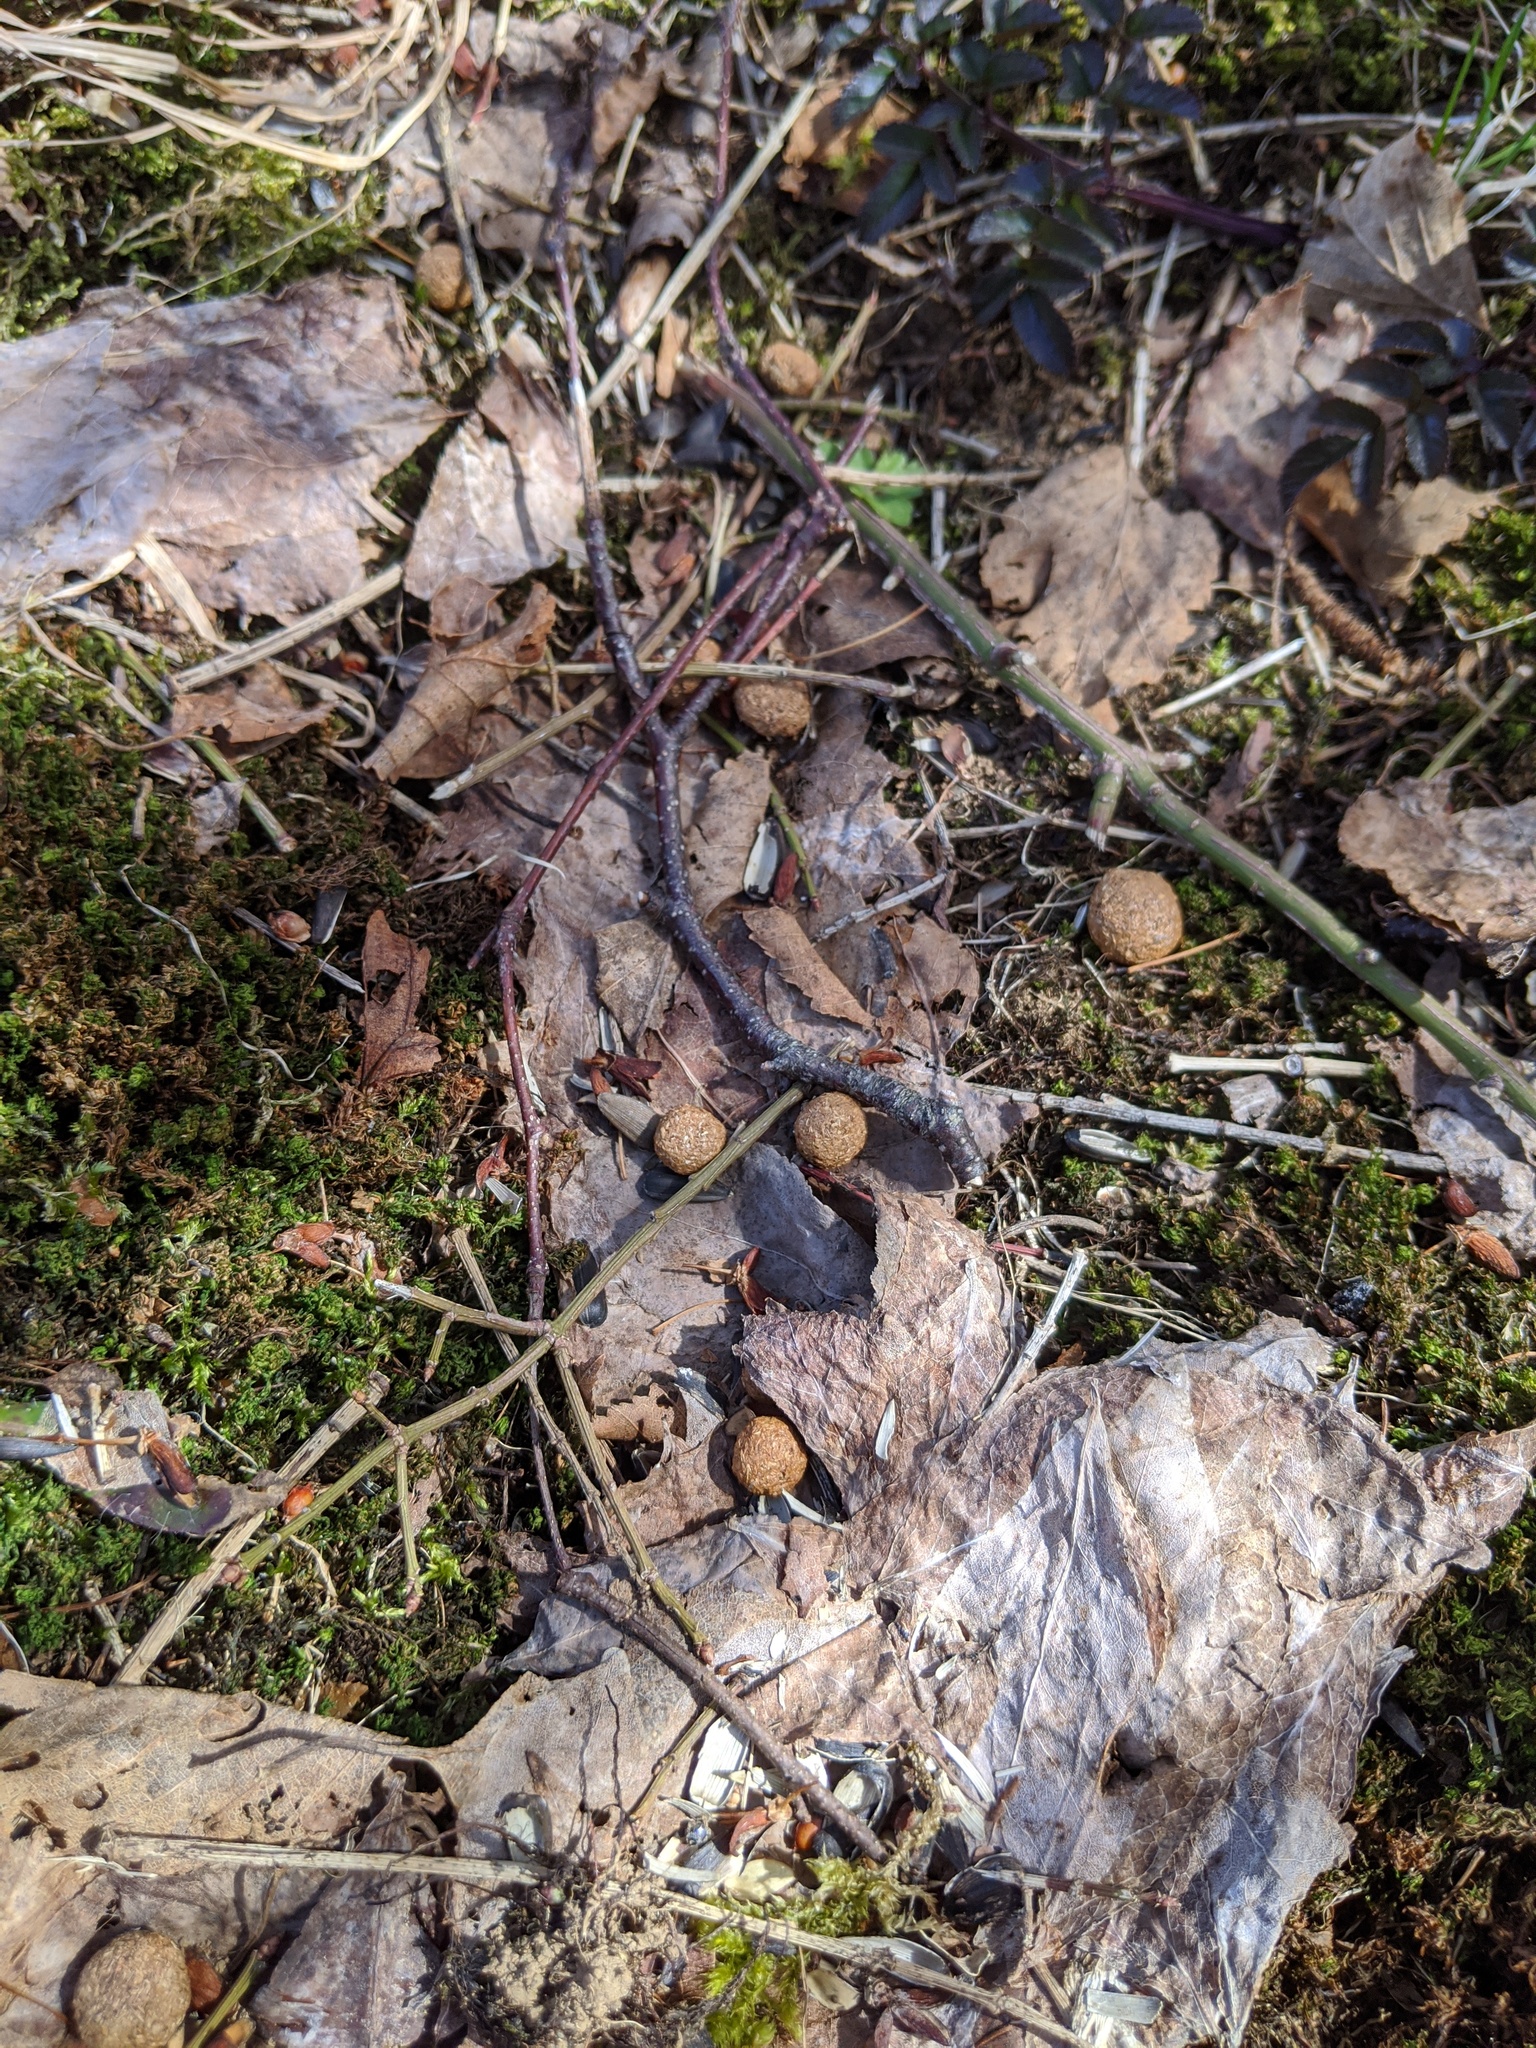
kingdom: Animalia
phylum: Chordata
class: Mammalia
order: Lagomorpha
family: Leporidae
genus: Lepus
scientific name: Lepus americanus
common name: Snowshoe hare
